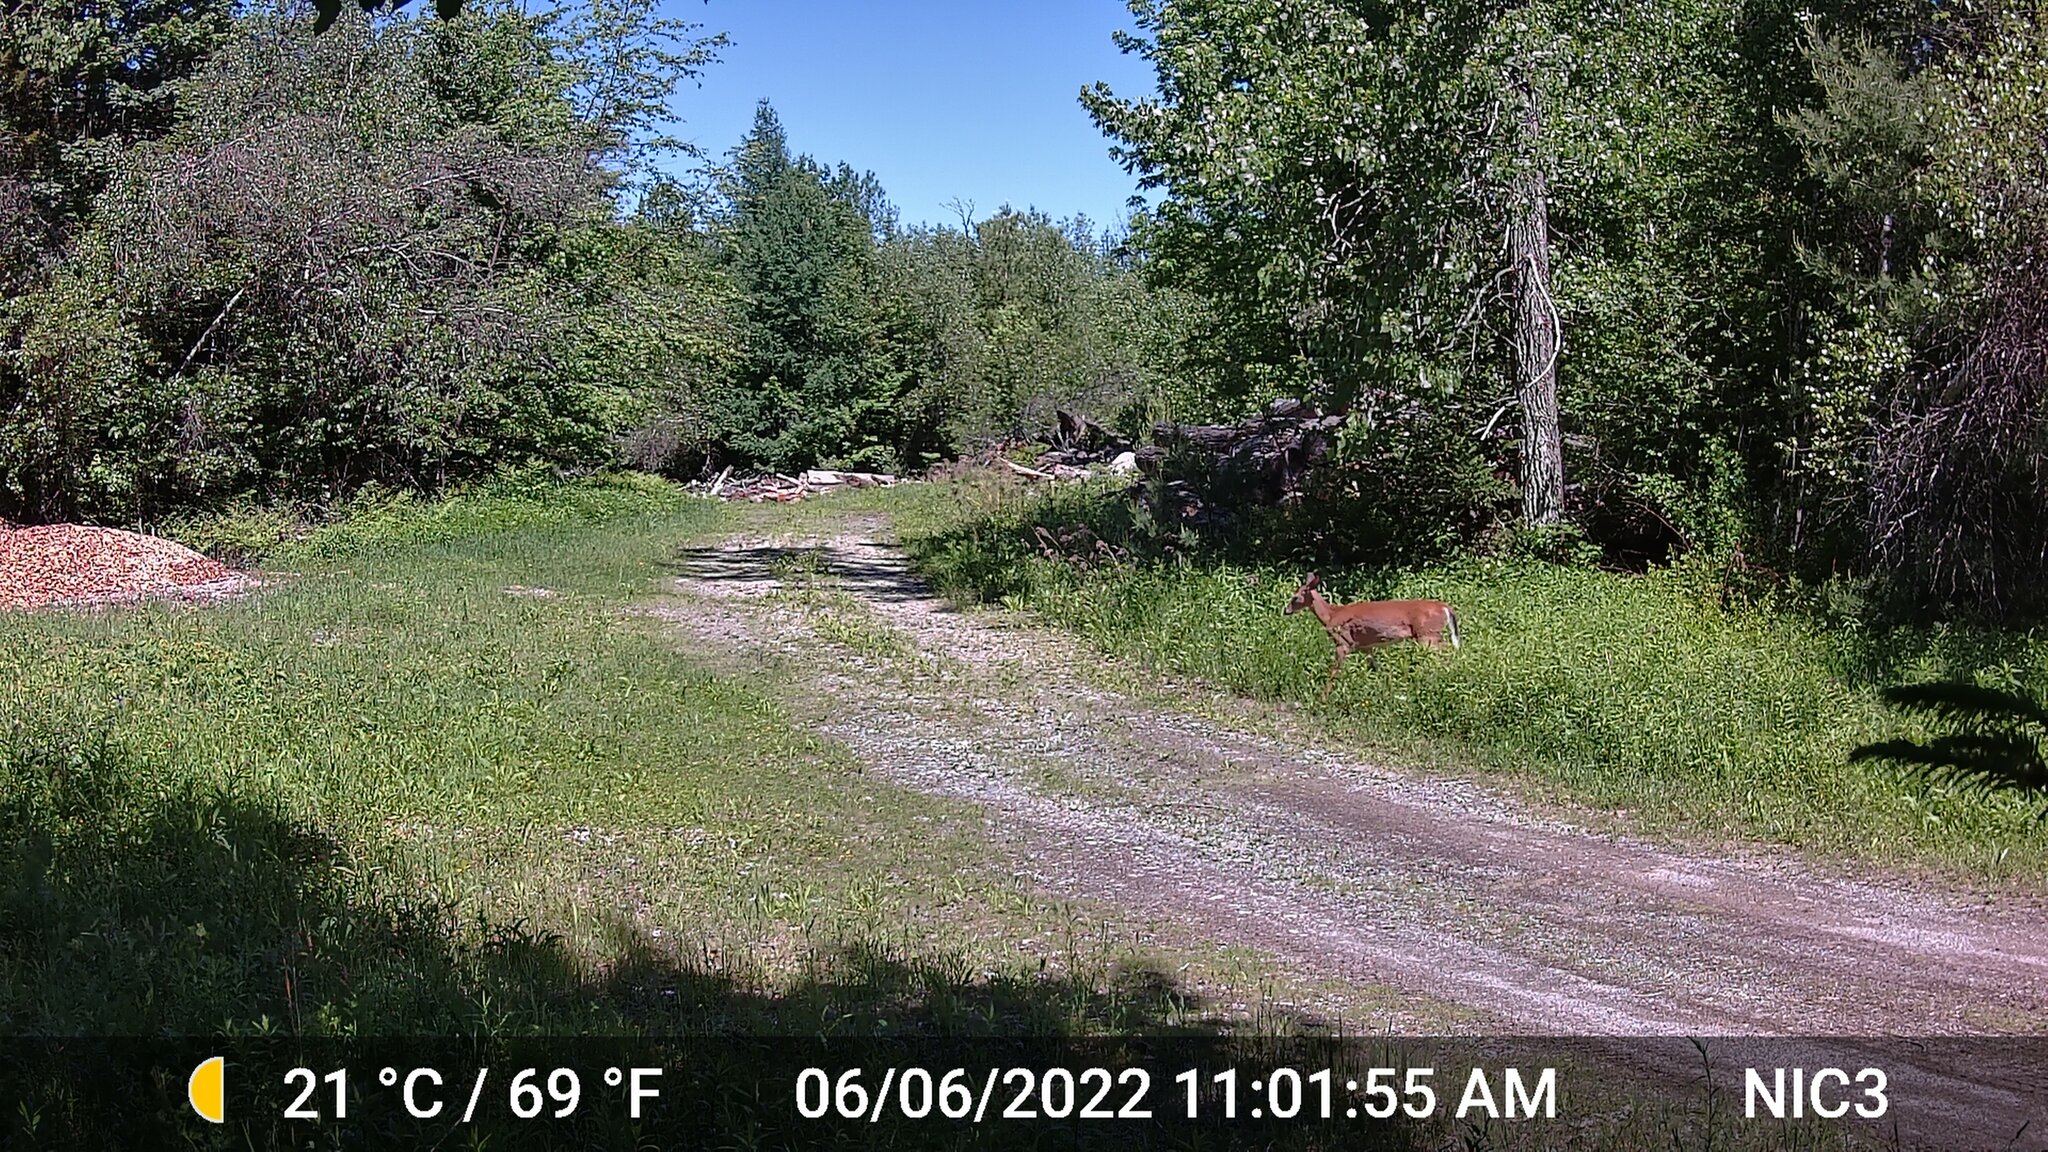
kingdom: Animalia
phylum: Chordata
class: Mammalia
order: Artiodactyla
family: Cervidae
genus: Odocoileus
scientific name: Odocoileus virginianus
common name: White-tailed deer
